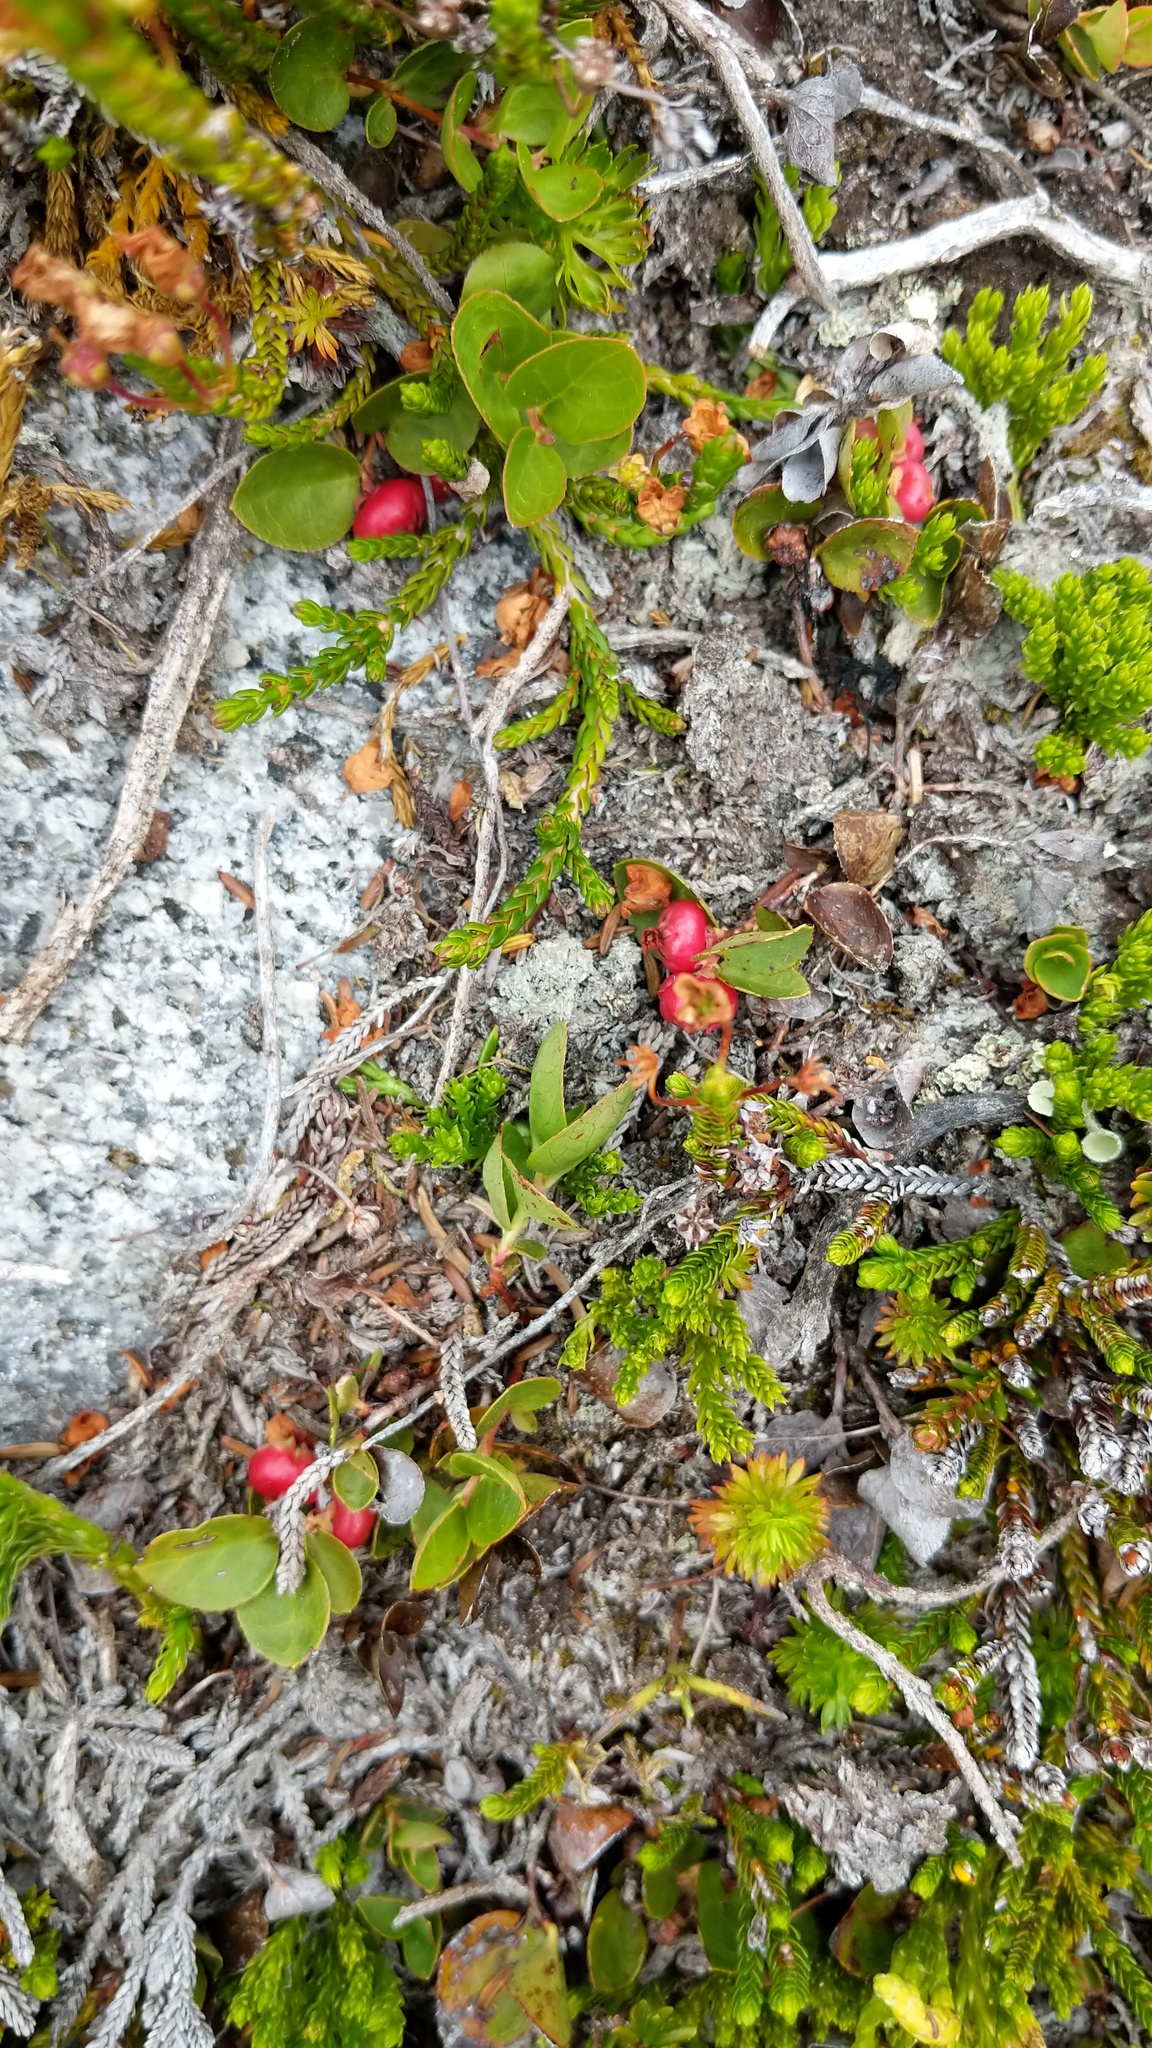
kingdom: Plantae
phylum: Tracheophyta
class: Magnoliopsida
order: Ericales
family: Ericaceae
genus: Gaultheria
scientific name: Gaultheria humifusa
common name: Alpine wintergreen
